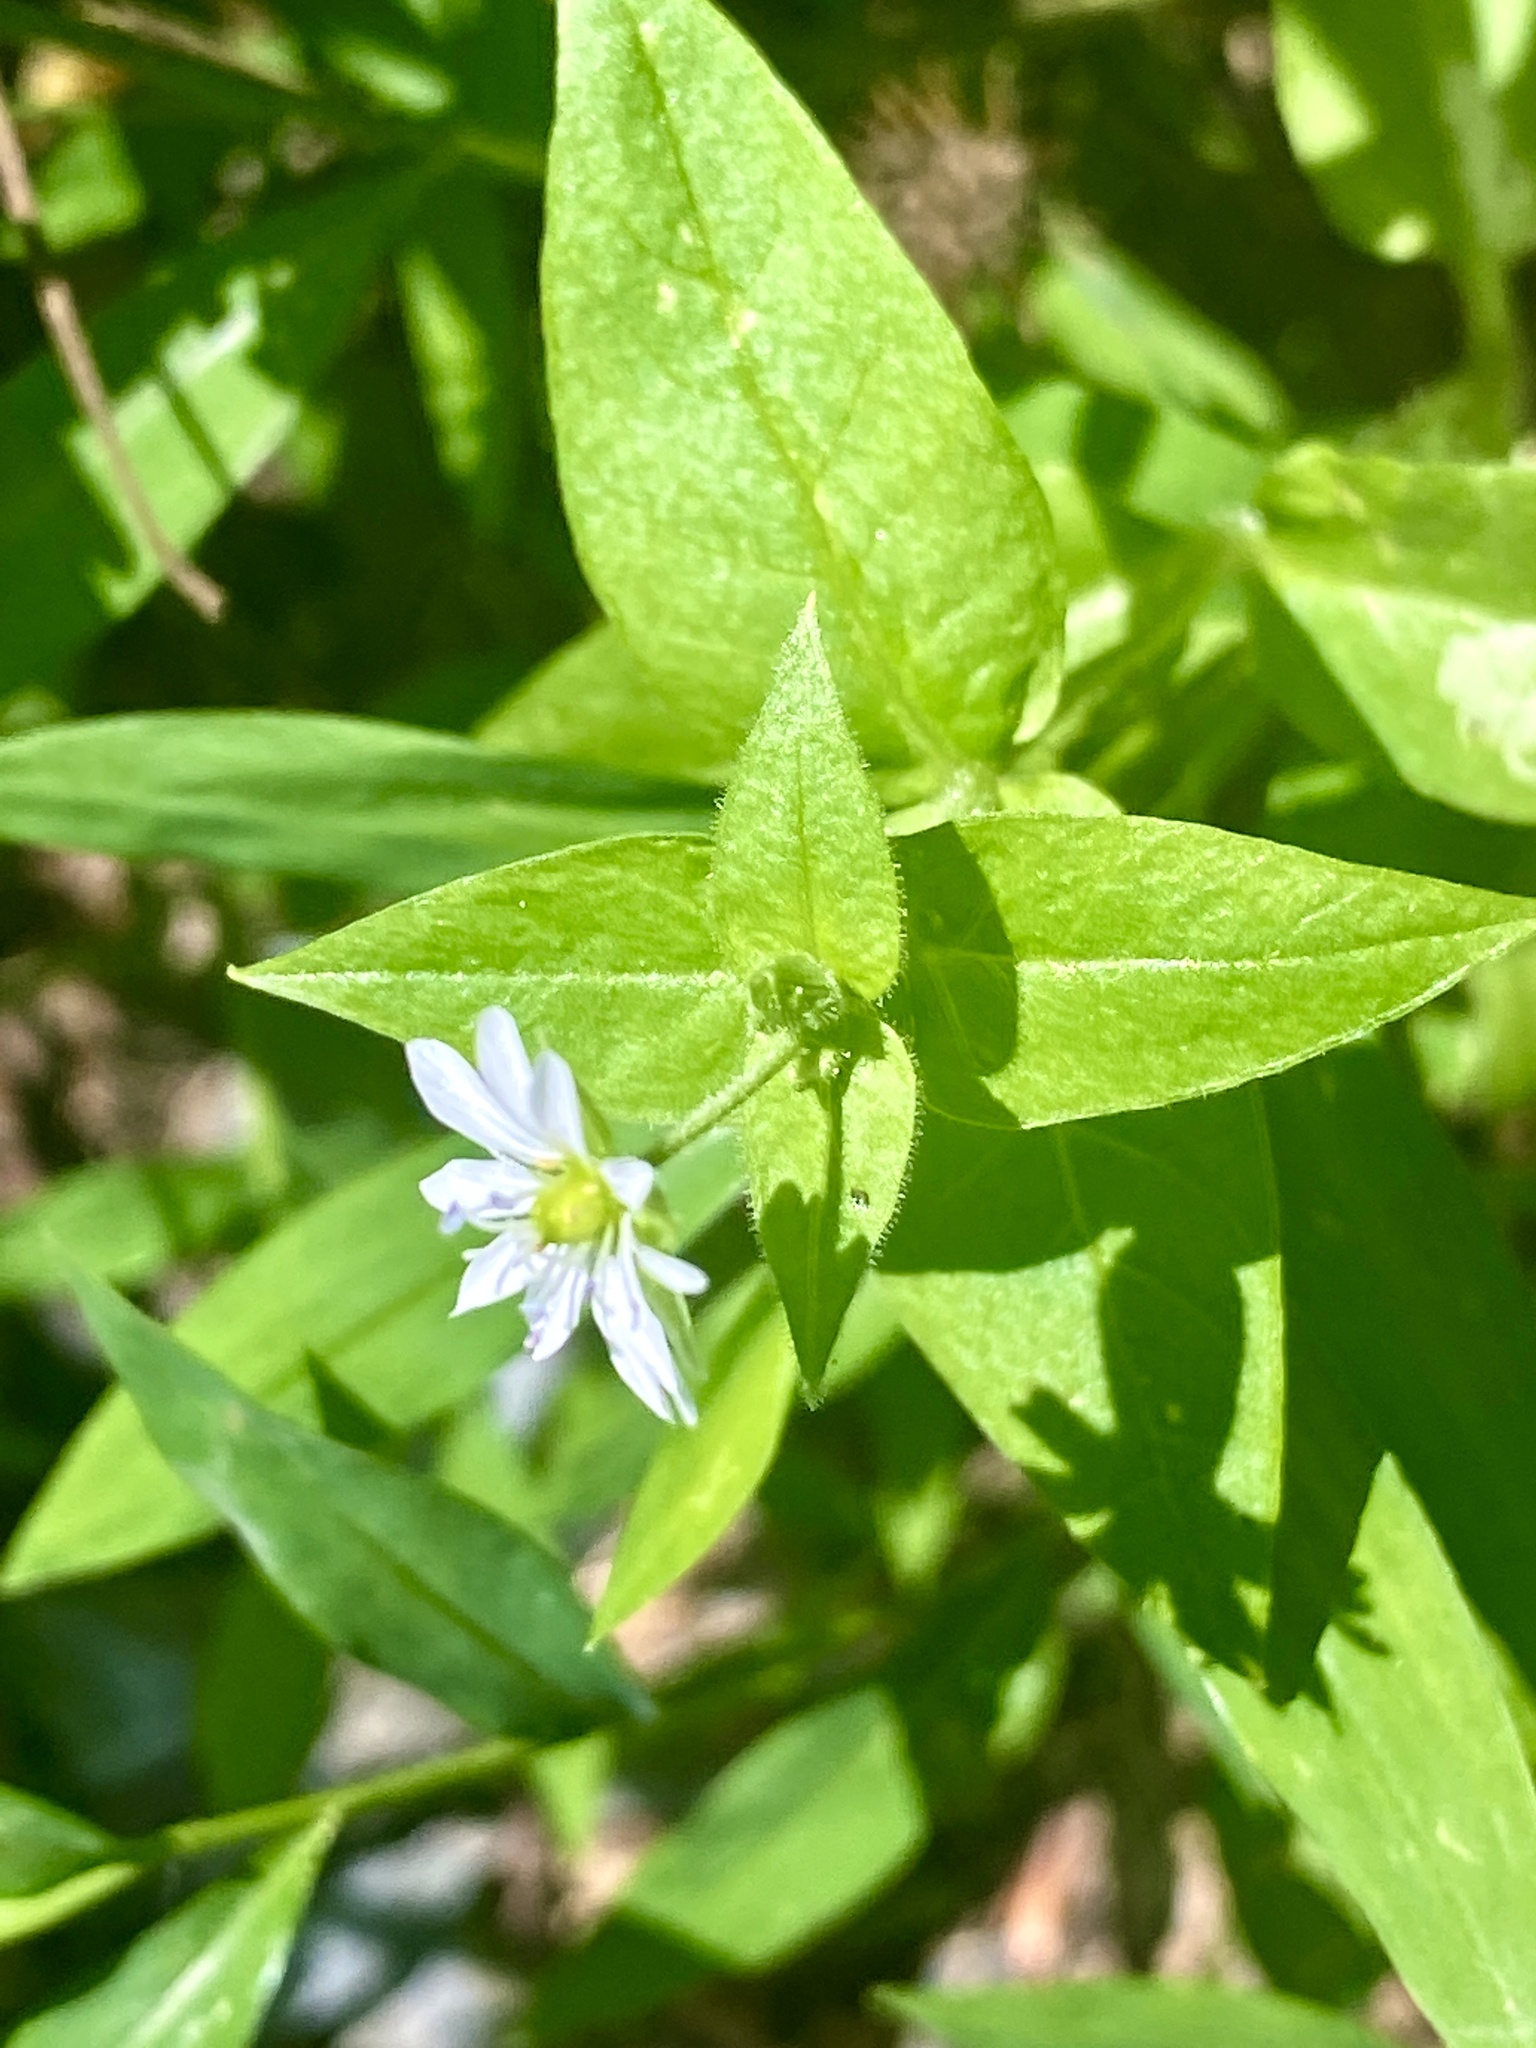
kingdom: Plantae
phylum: Tracheophyta
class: Magnoliopsida
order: Caryophyllales
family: Caryophyllaceae
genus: Stellaria
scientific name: Stellaria aquatica
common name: Water chickweed
